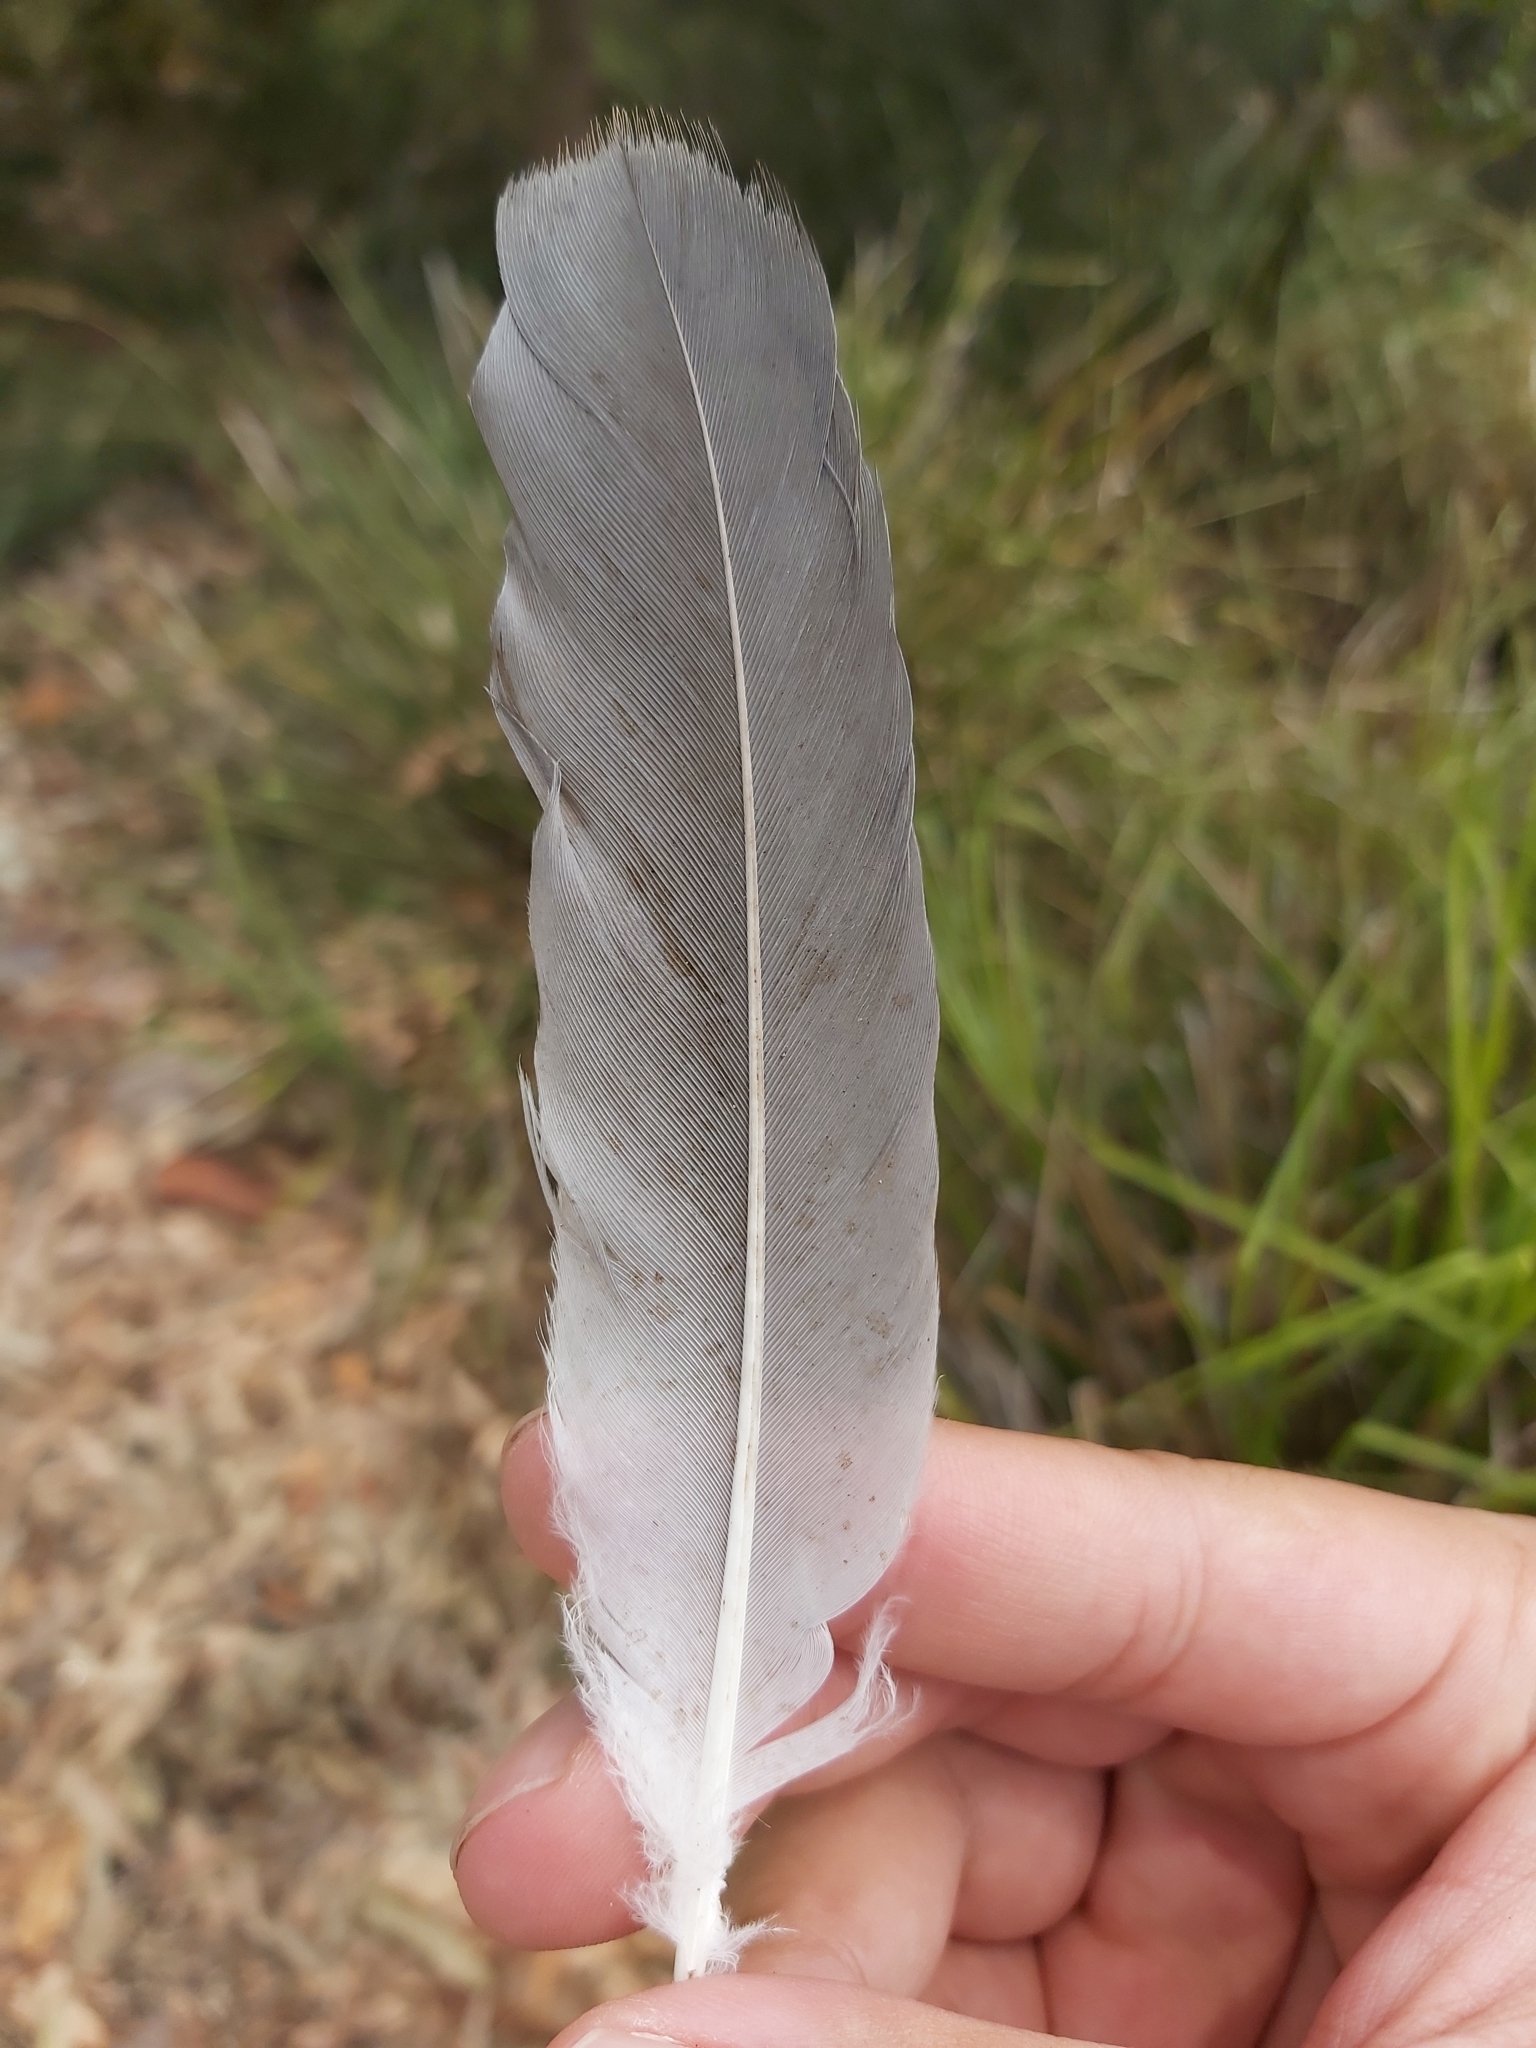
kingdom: Animalia
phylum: Chordata
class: Aves
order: Pelecaniformes
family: Ardeidae
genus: Egretta
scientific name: Egretta novaehollandiae
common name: White-faced heron
